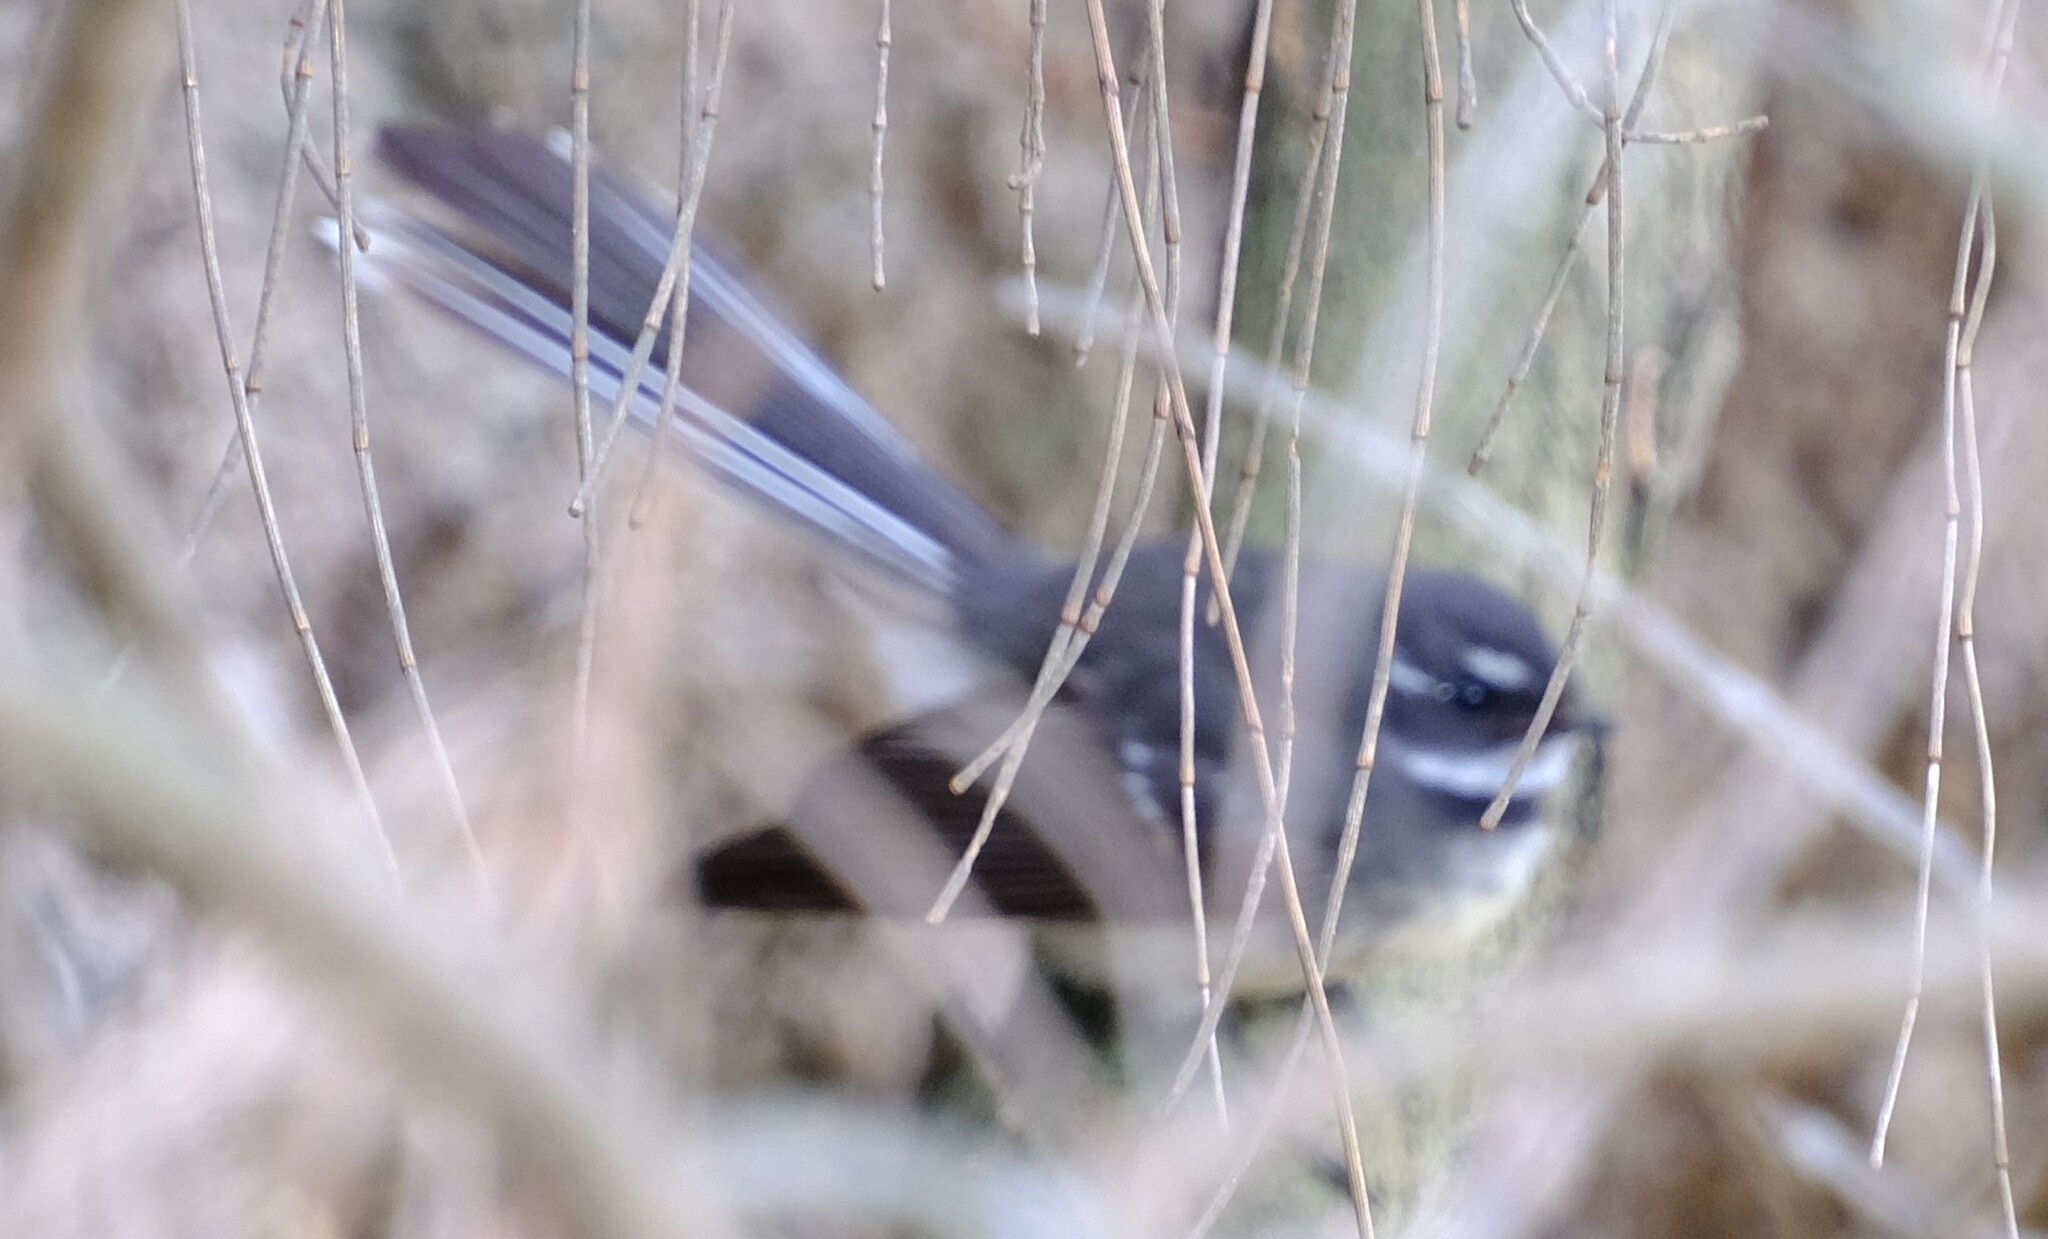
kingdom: Animalia
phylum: Chordata
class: Aves
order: Passeriformes
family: Rhipiduridae
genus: Rhipidura
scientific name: Rhipidura albiscapa
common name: Grey fantail
